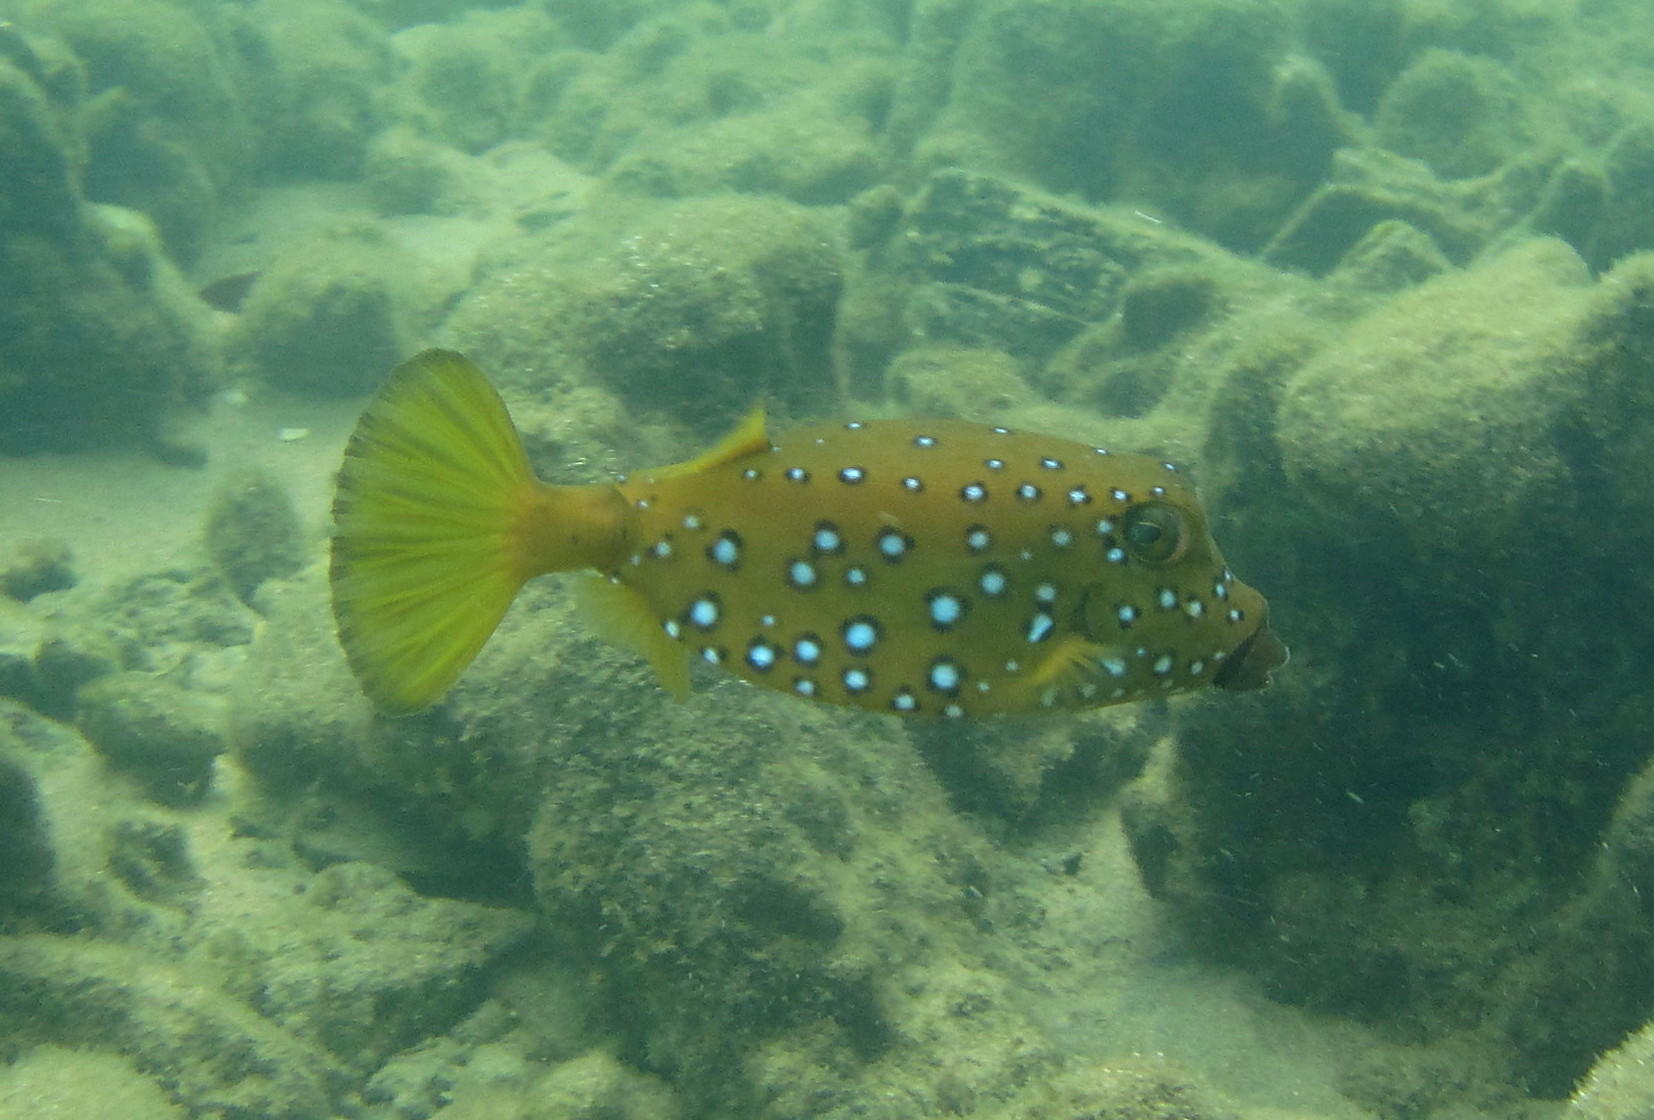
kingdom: Animalia
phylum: Chordata
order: Tetraodontiformes
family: Ostraciidae
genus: Ostracion
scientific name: Ostracion cubicus
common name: Cube trunkfish
